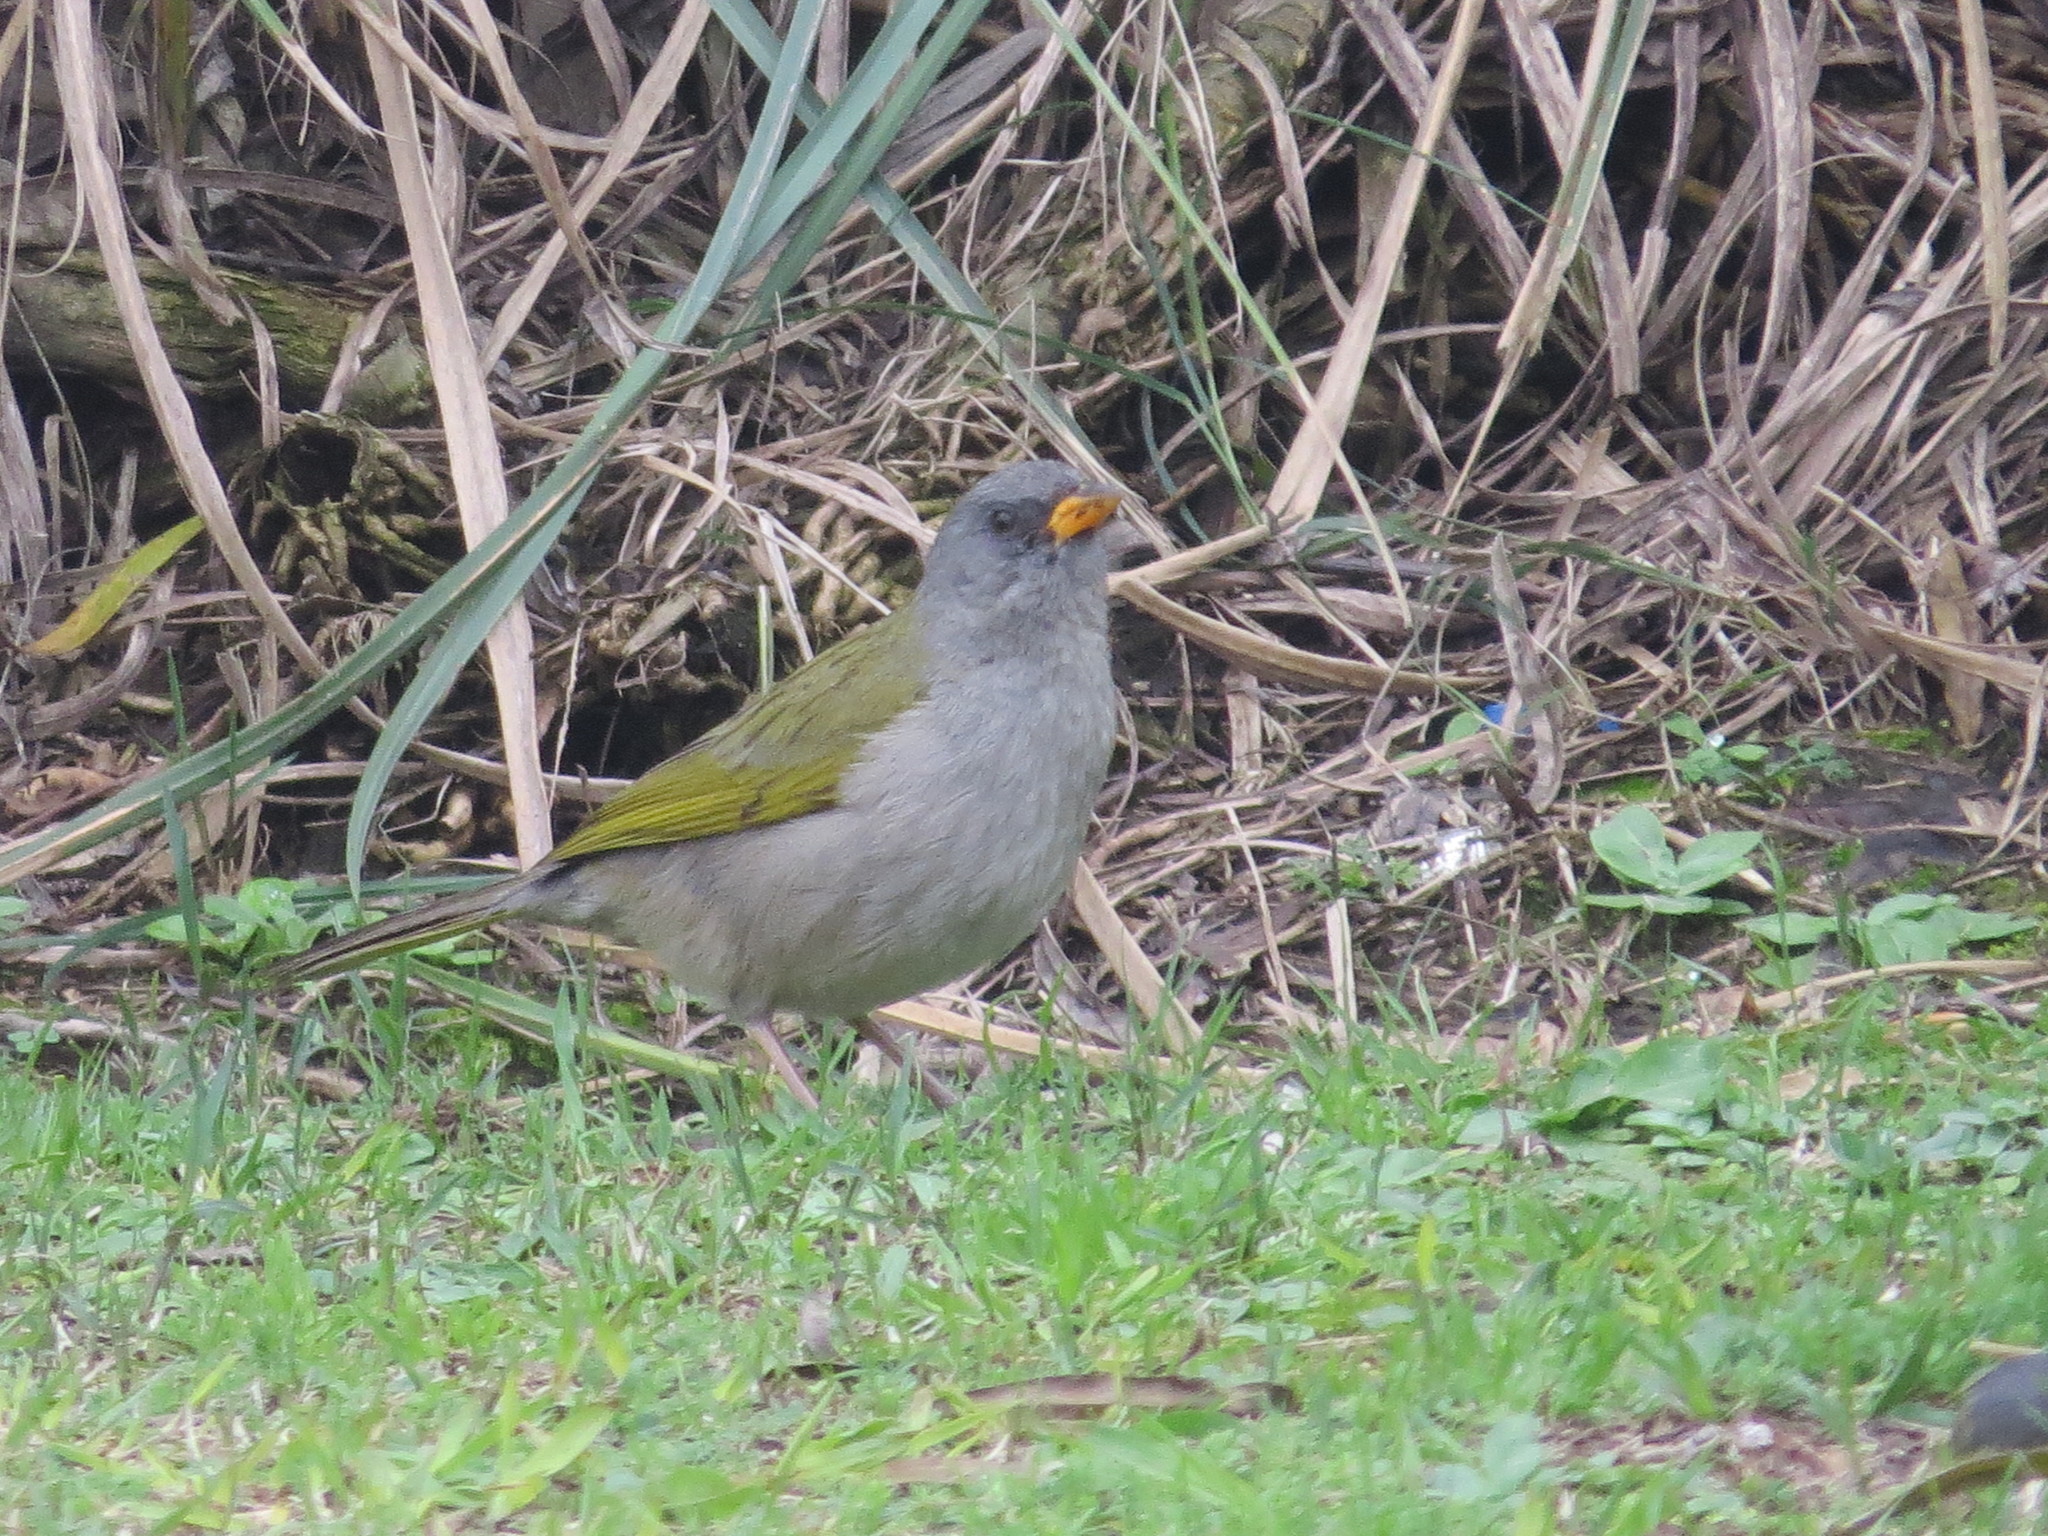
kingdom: Animalia
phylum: Chordata
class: Aves
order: Passeriformes
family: Thraupidae
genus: Embernagra
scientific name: Embernagra platensis
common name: Pampa finch
